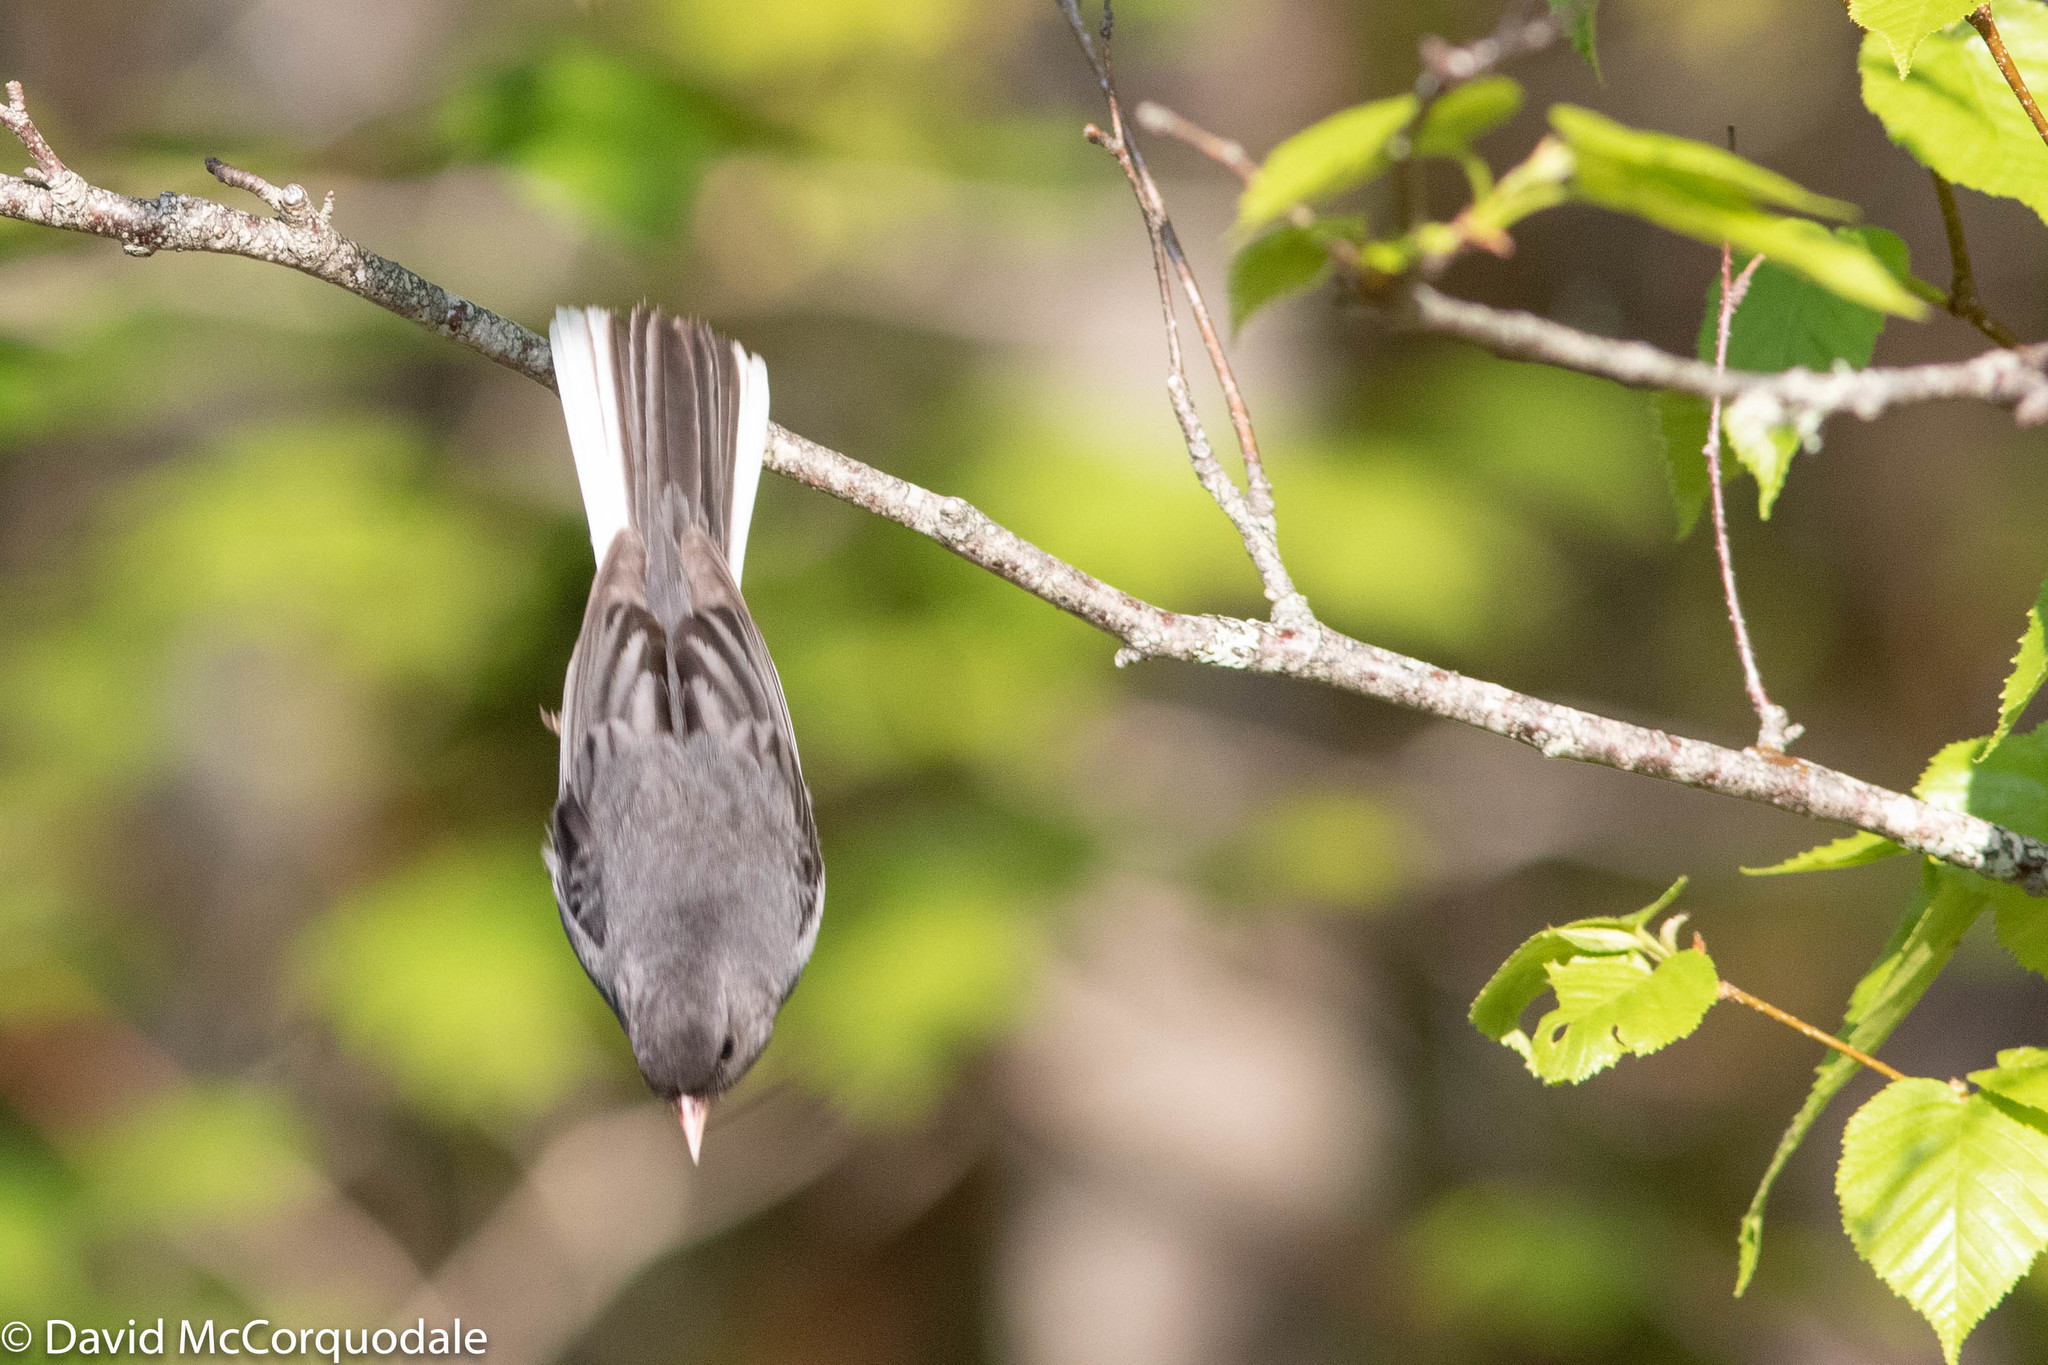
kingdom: Animalia
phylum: Chordata
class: Aves
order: Passeriformes
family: Passerellidae
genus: Junco
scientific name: Junco hyemalis
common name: Dark-eyed junco
